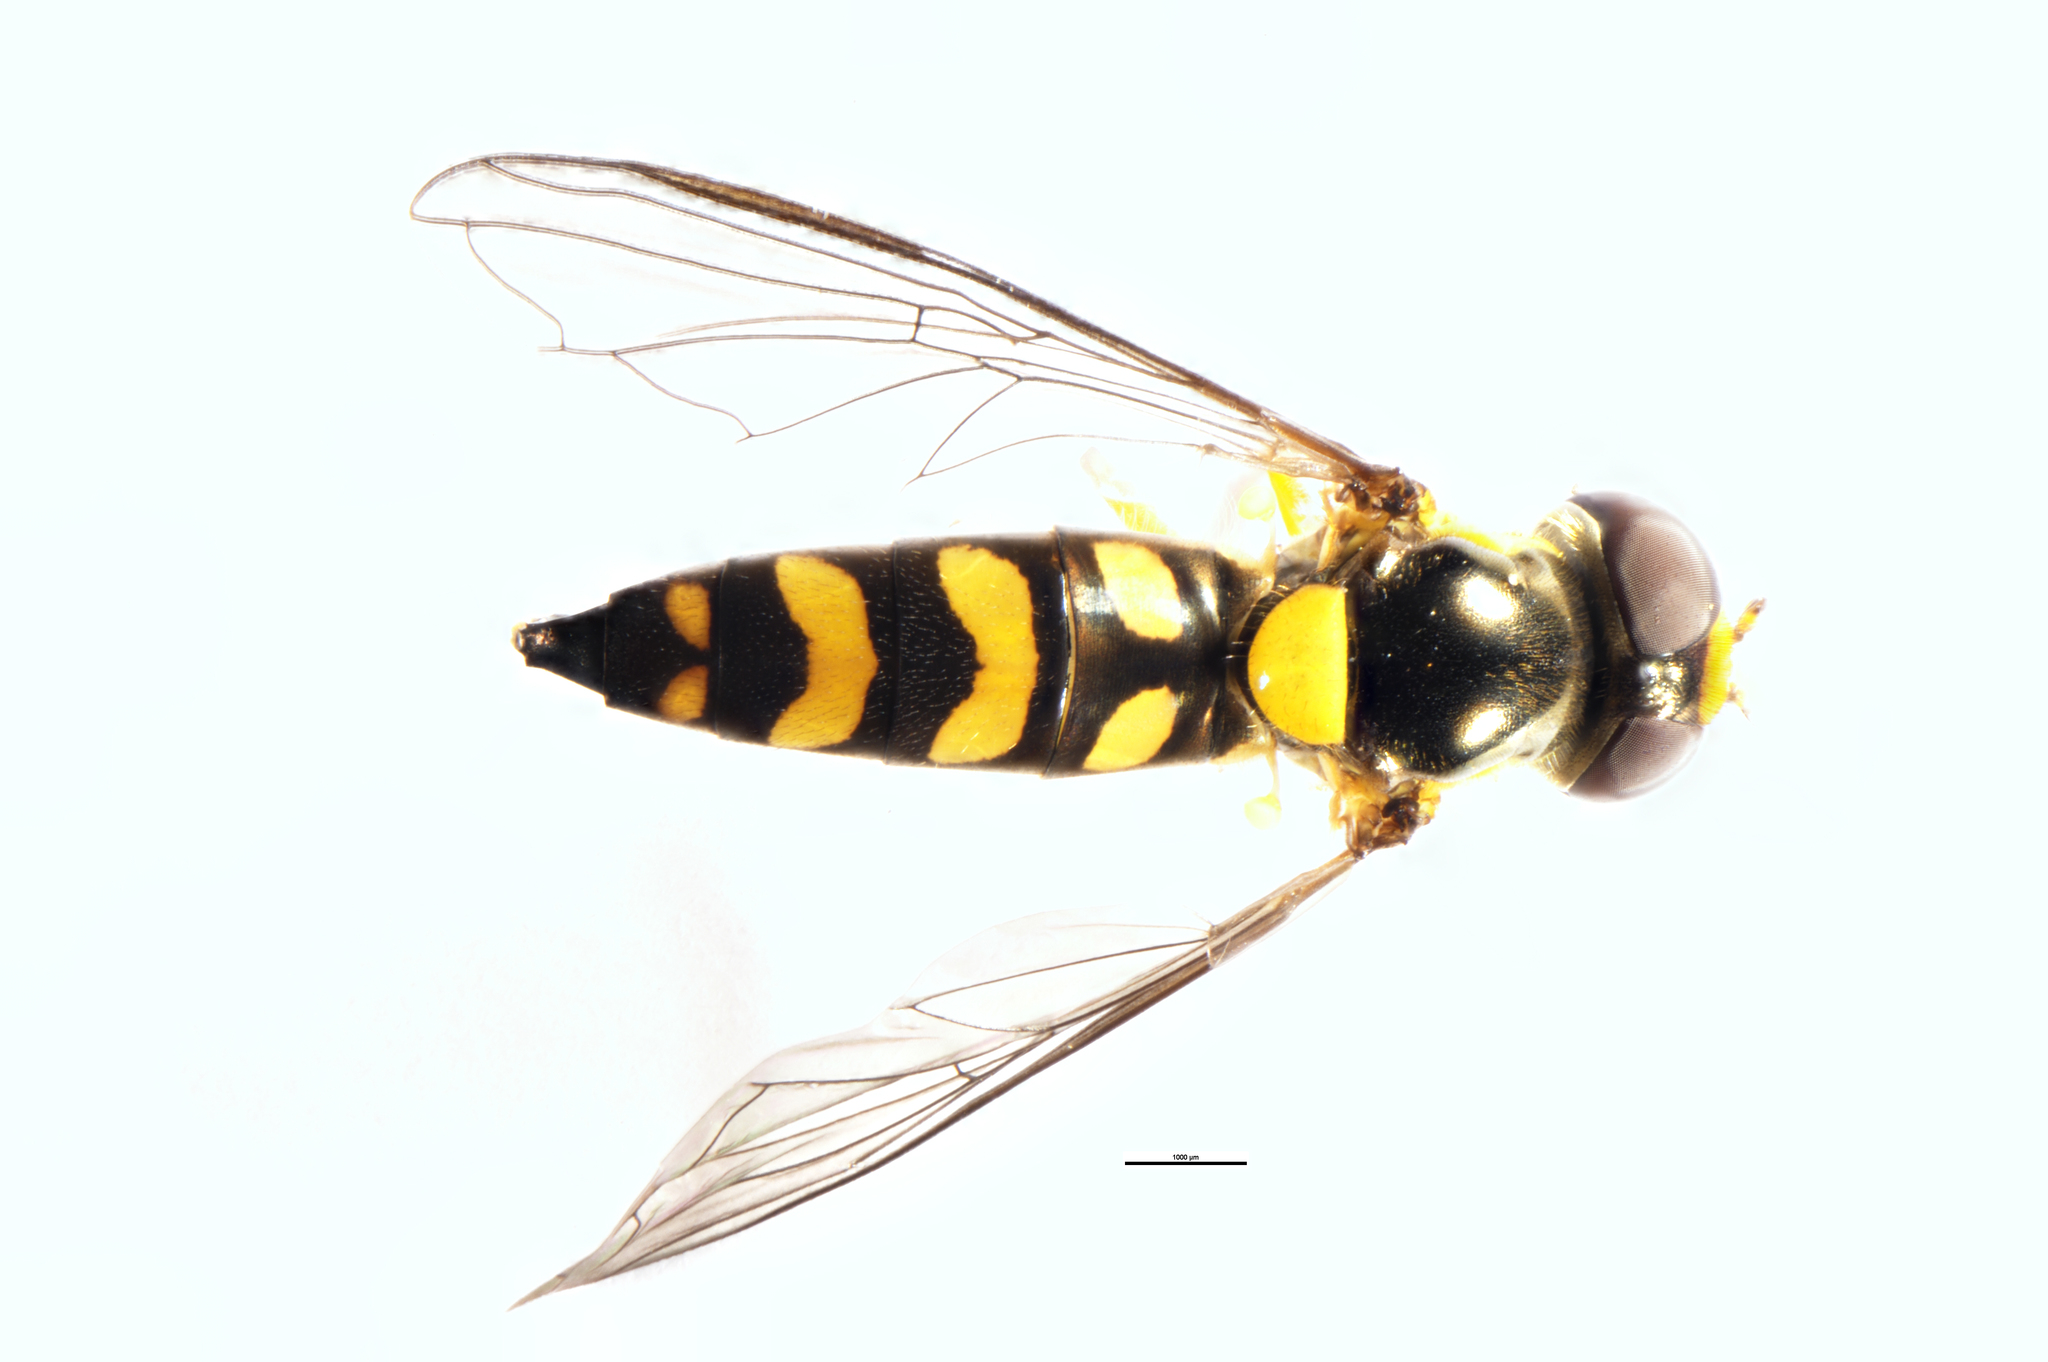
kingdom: Animalia
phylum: Arthropoda
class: Insecta
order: Diptera
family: Syrphidae
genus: Allograpta
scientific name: Allograpta ropala
